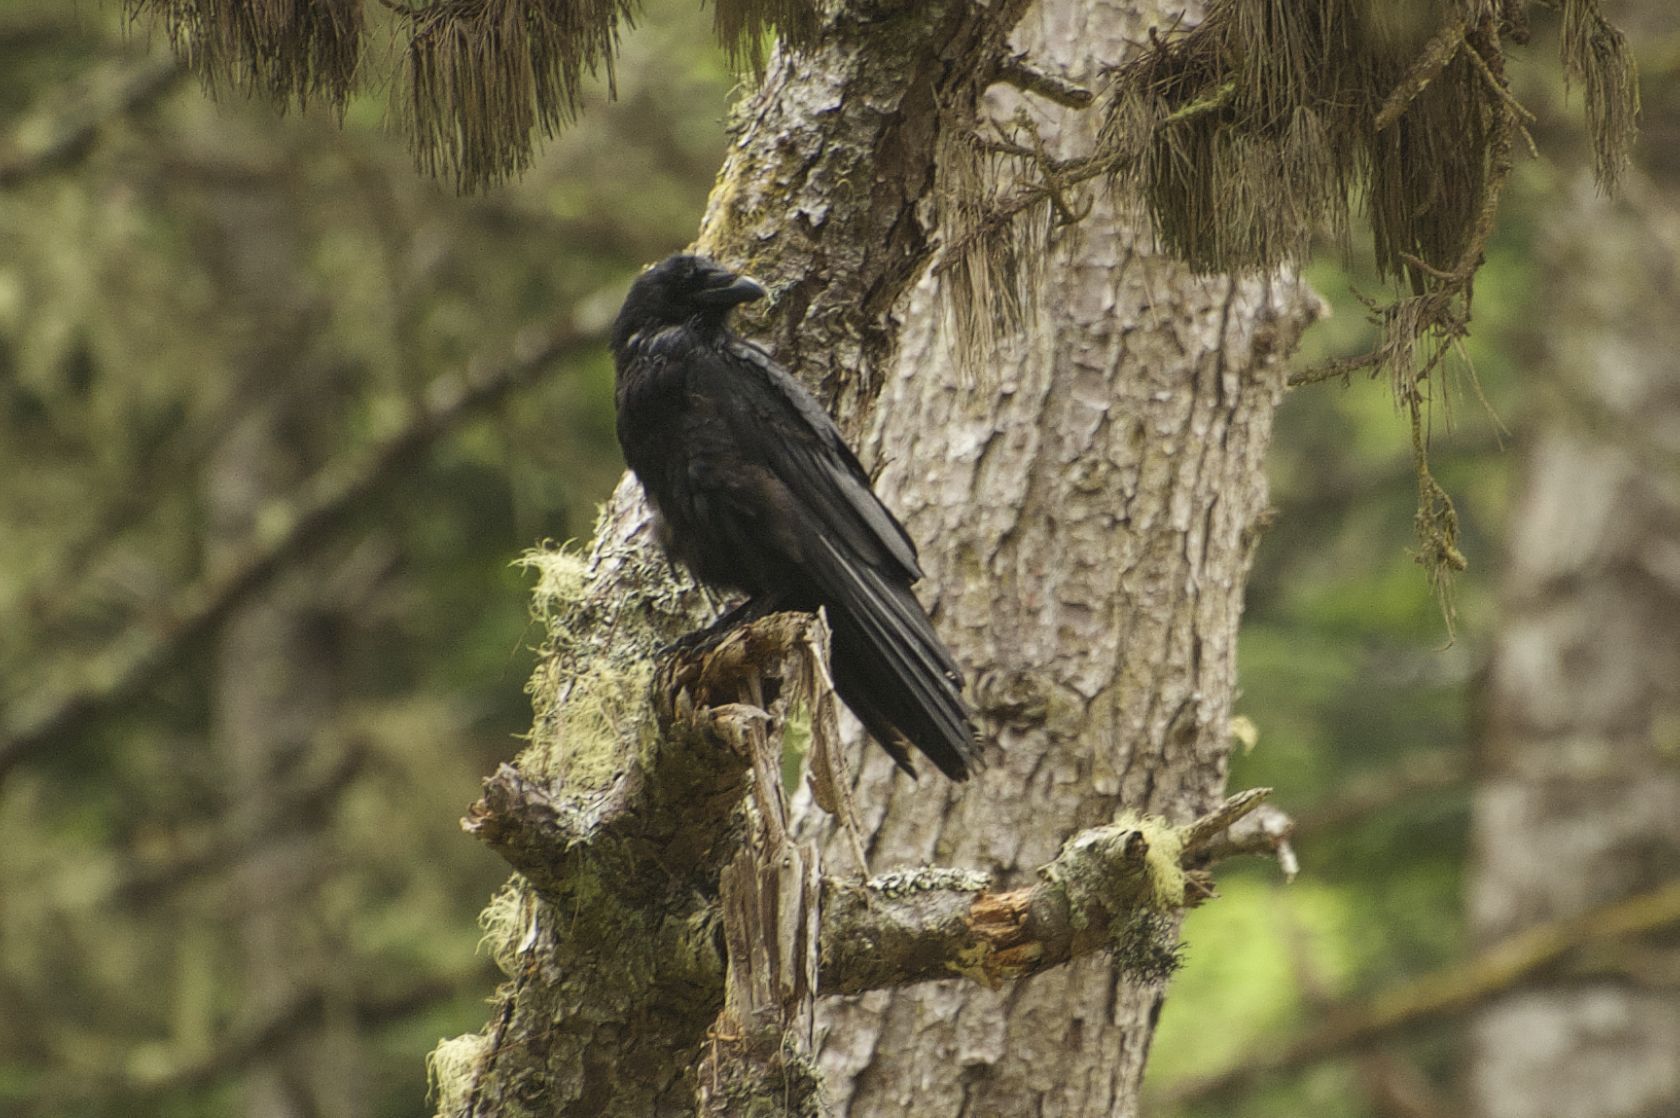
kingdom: Animalia
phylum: Chordata
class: Aves
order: Passeriformes
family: Corvidae
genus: Corvus
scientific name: Corvus corax
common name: Common raven
